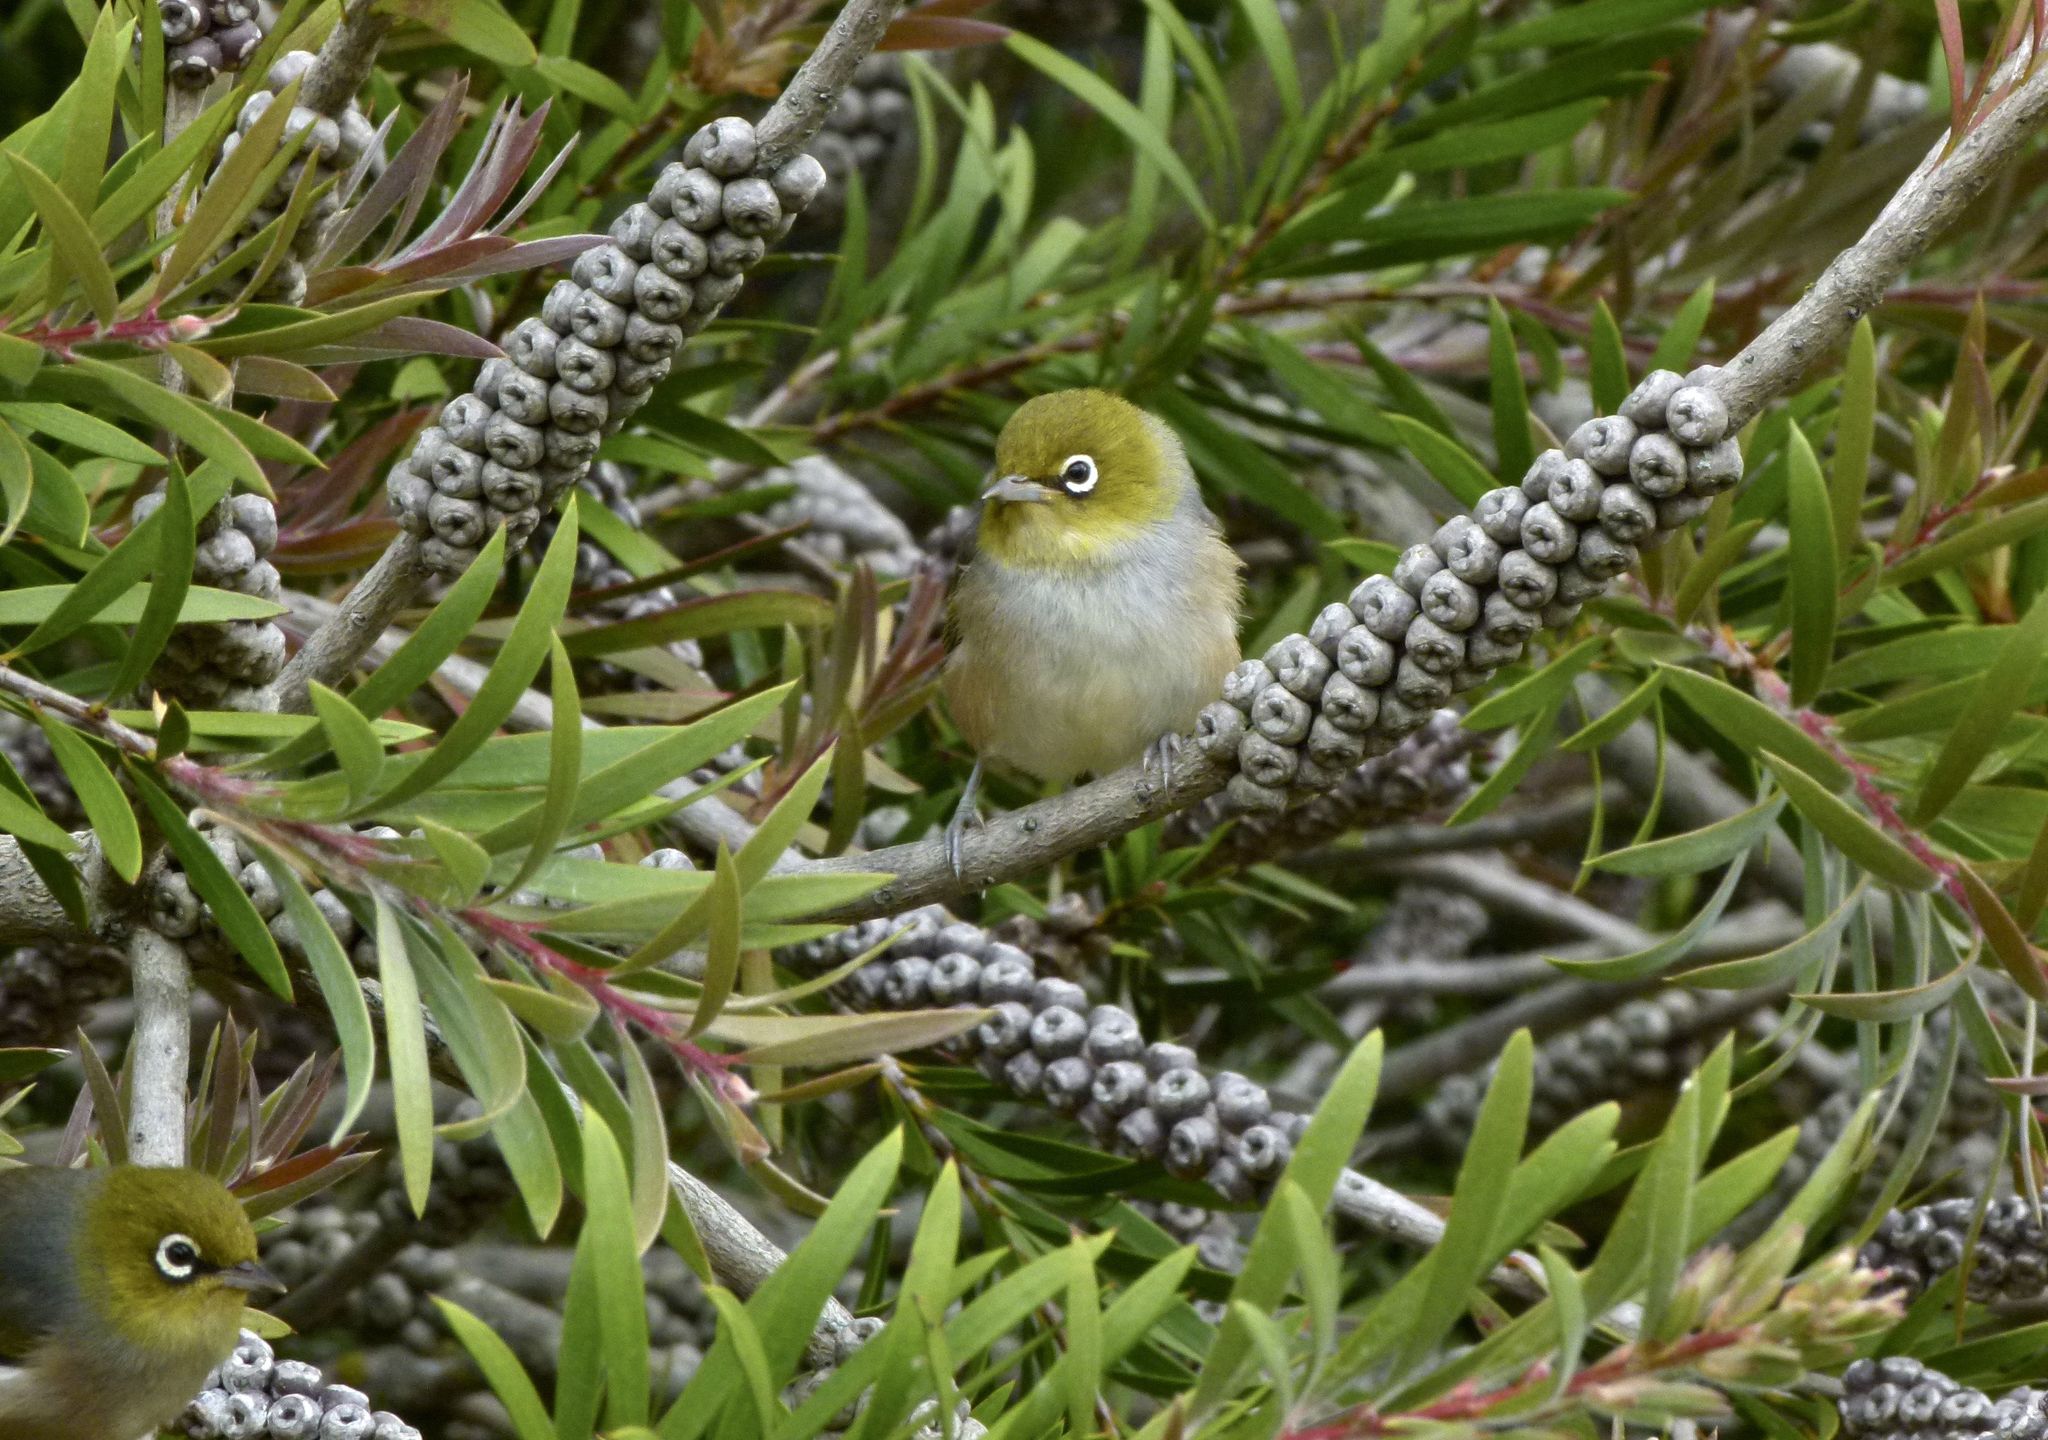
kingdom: Animalia
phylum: Chordata
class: Aves
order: Passeriformes
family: Zosteropidae
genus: Zosterops
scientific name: Zosterops lateralis
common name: Silvereye
